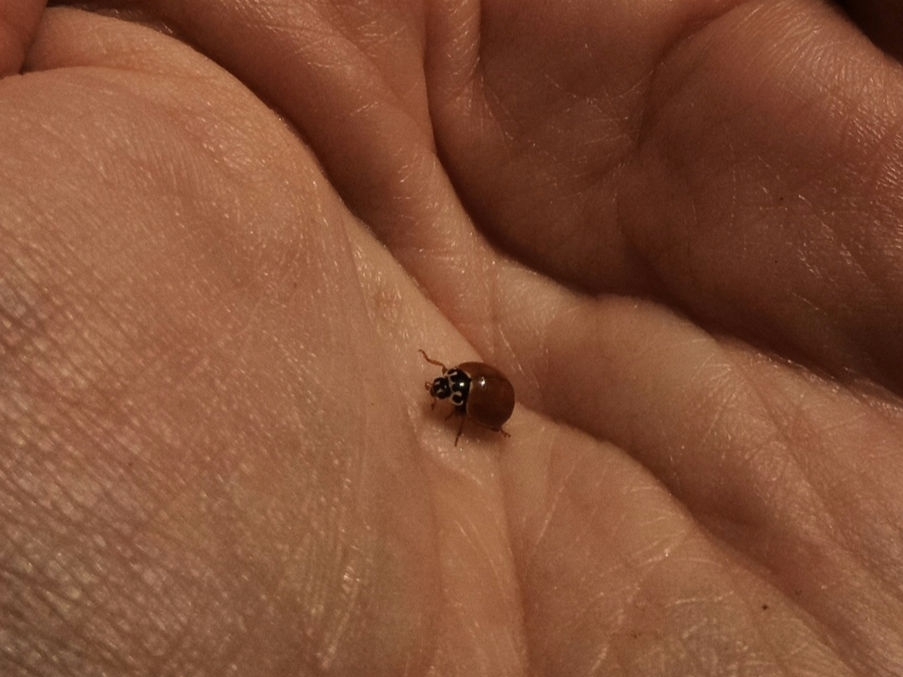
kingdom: Animalia
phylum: Arthropoda
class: Insecta
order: Coleoptera
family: Coccinellidae
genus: Cycloneda
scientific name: Cycloneda munda
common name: Polished lady beetle
